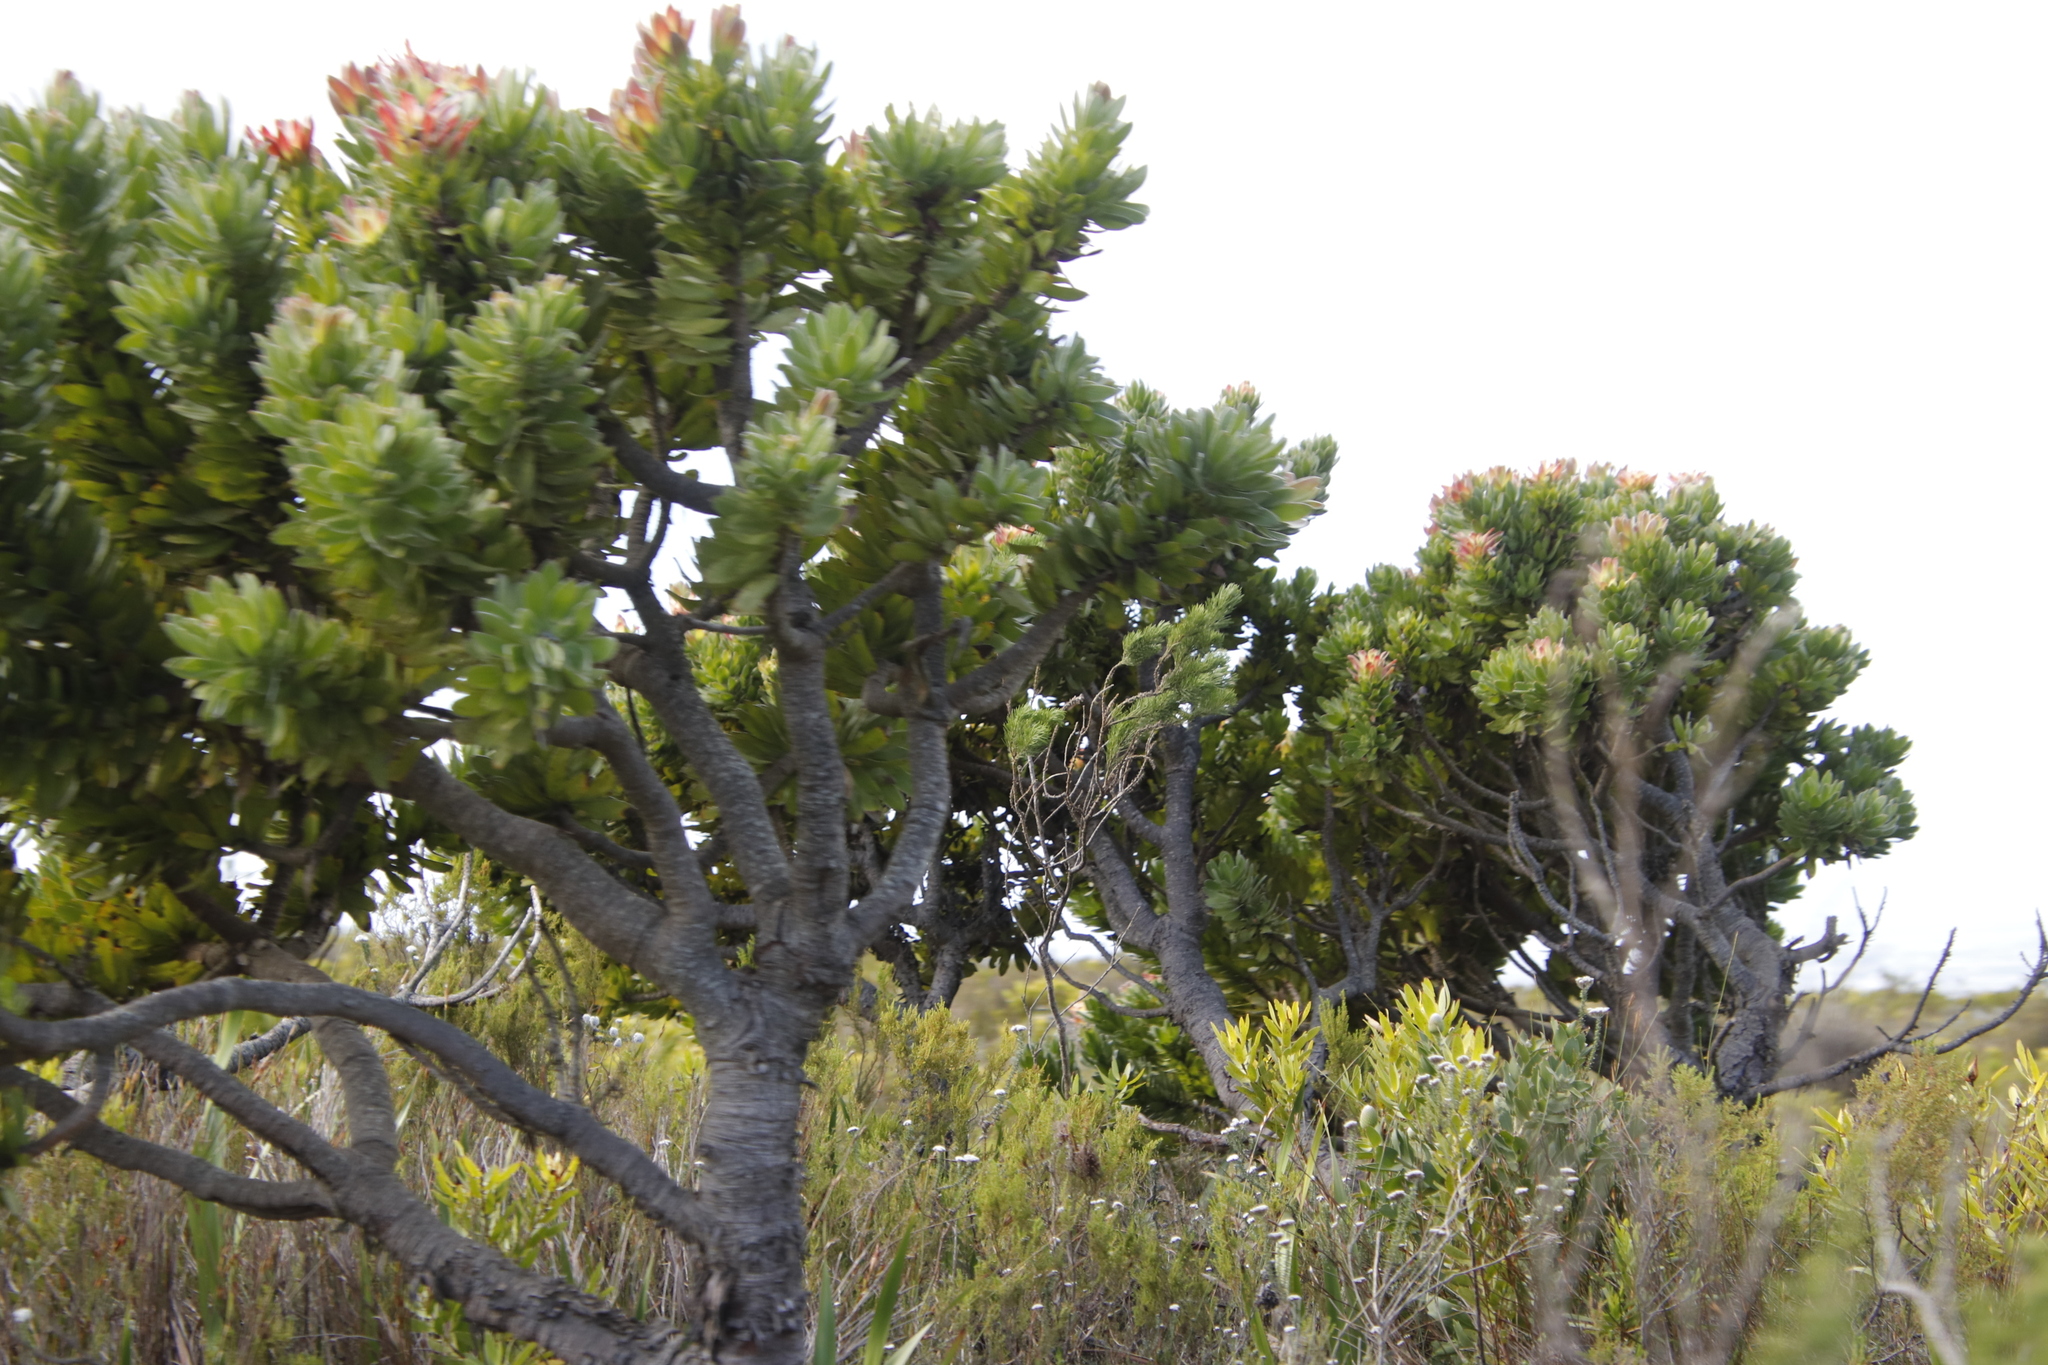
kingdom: Plantae
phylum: Tracheophyta
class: Magnoliopsida
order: Proteales
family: Proteaceae
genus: Mimetes
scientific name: Mimetes fimbriifolius
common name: Fringed bottlebrush
